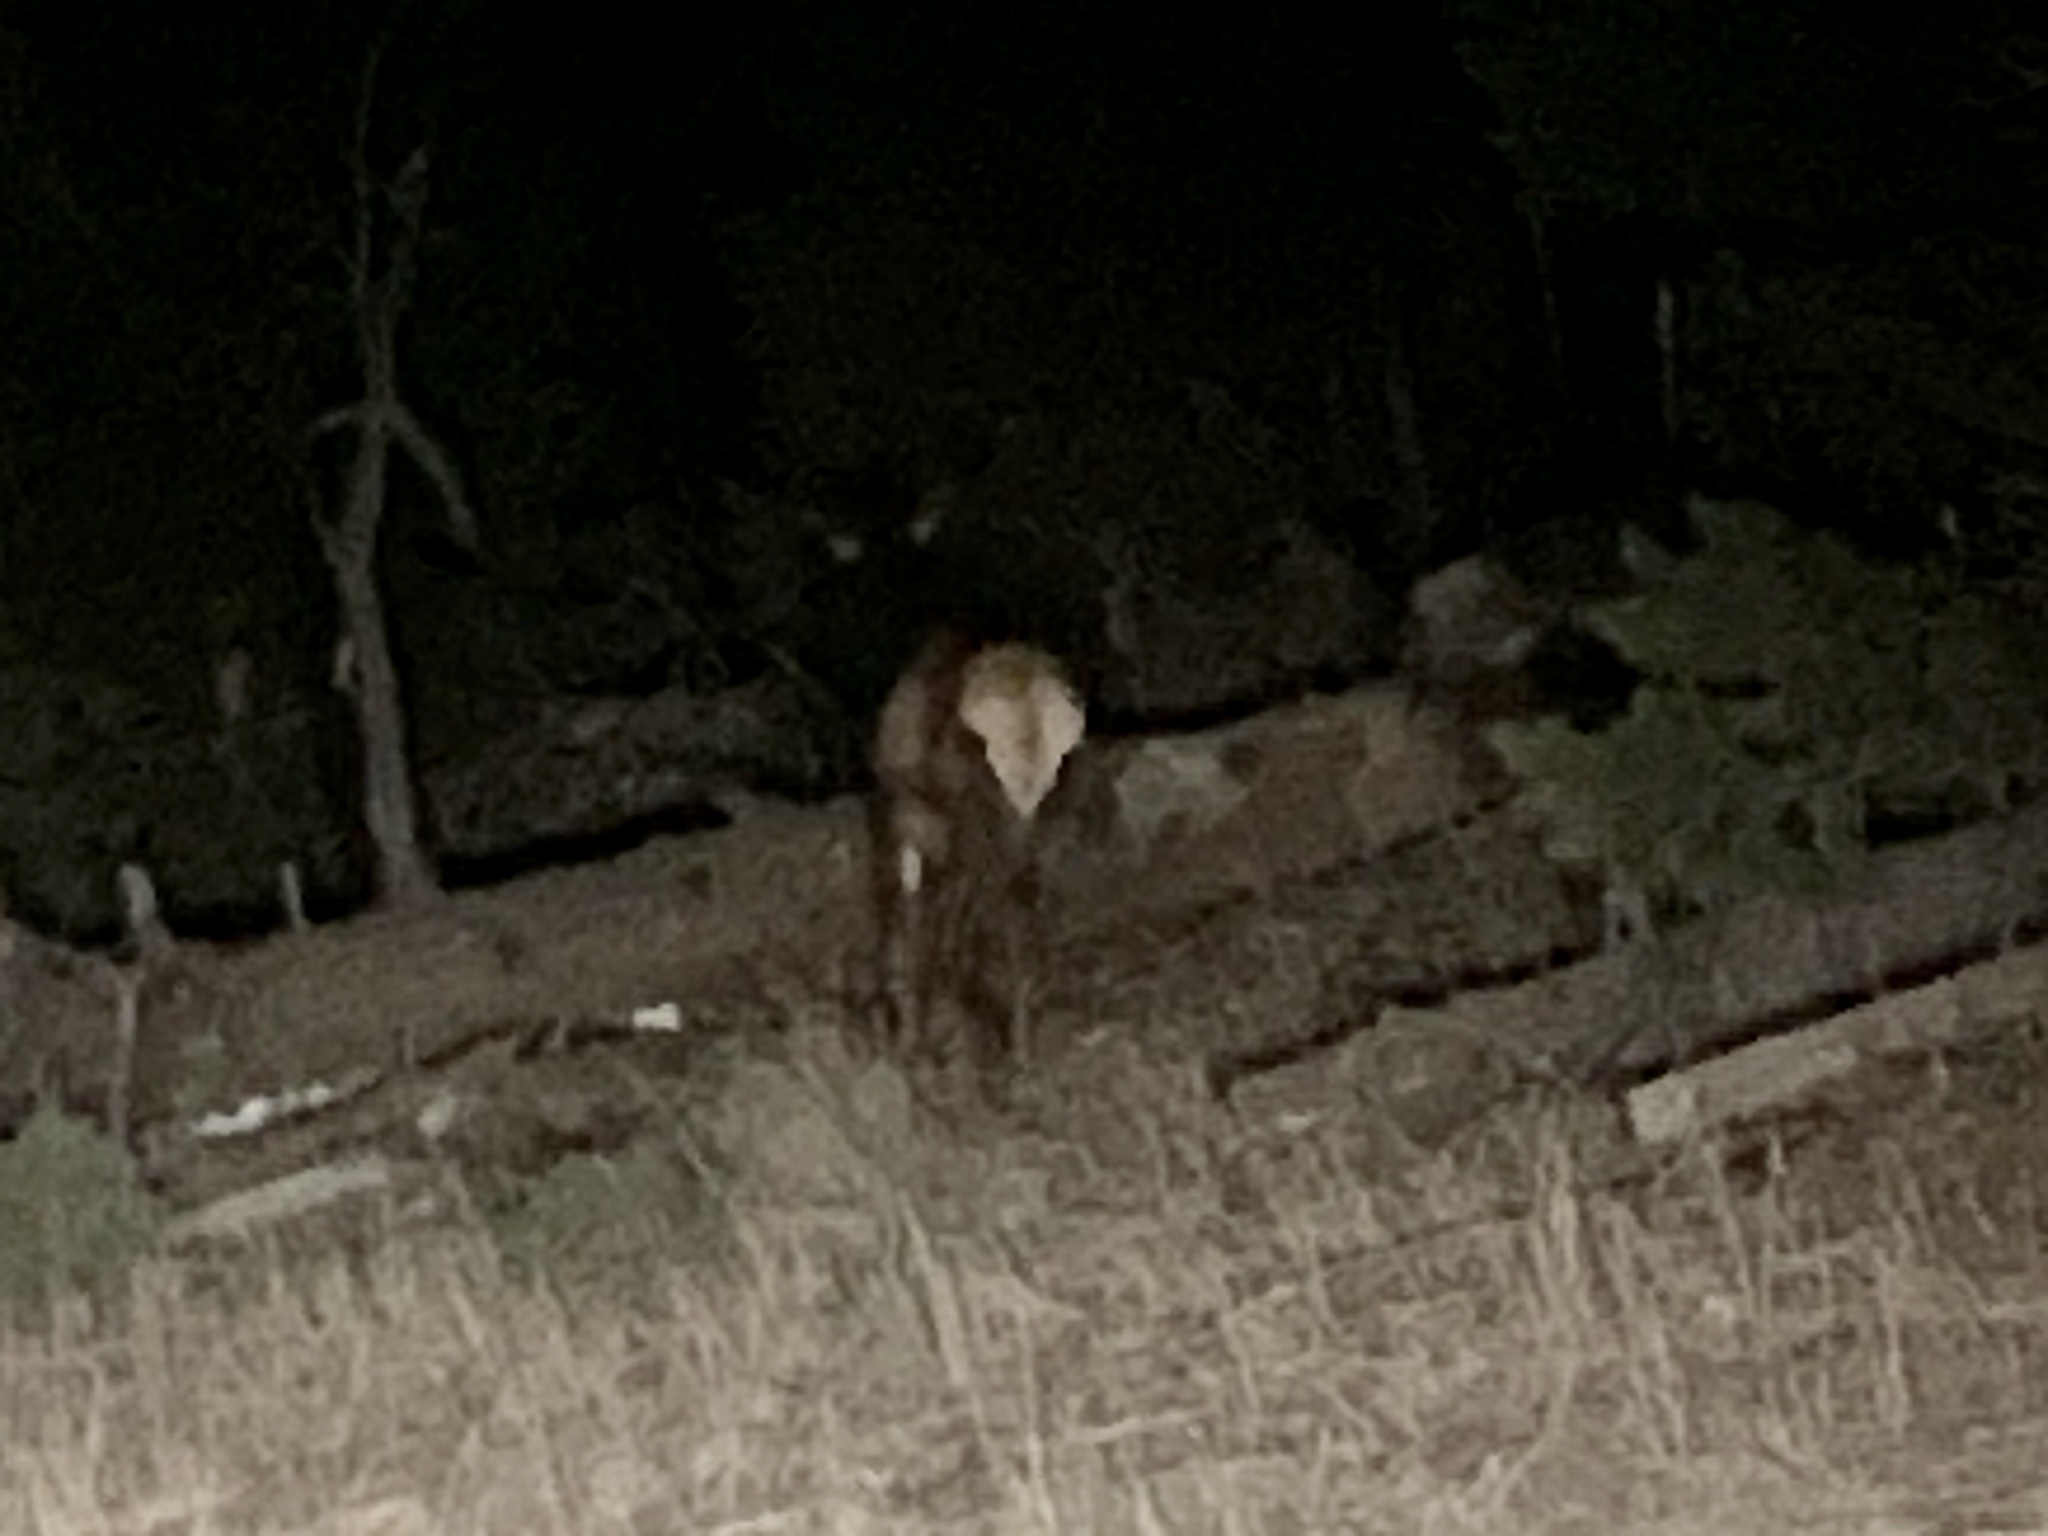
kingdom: Animalia
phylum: Chordata
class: Mammalia
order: Artiodactyla
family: Cervidae
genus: Cervus
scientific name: Cervus elaphus
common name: Red deer
